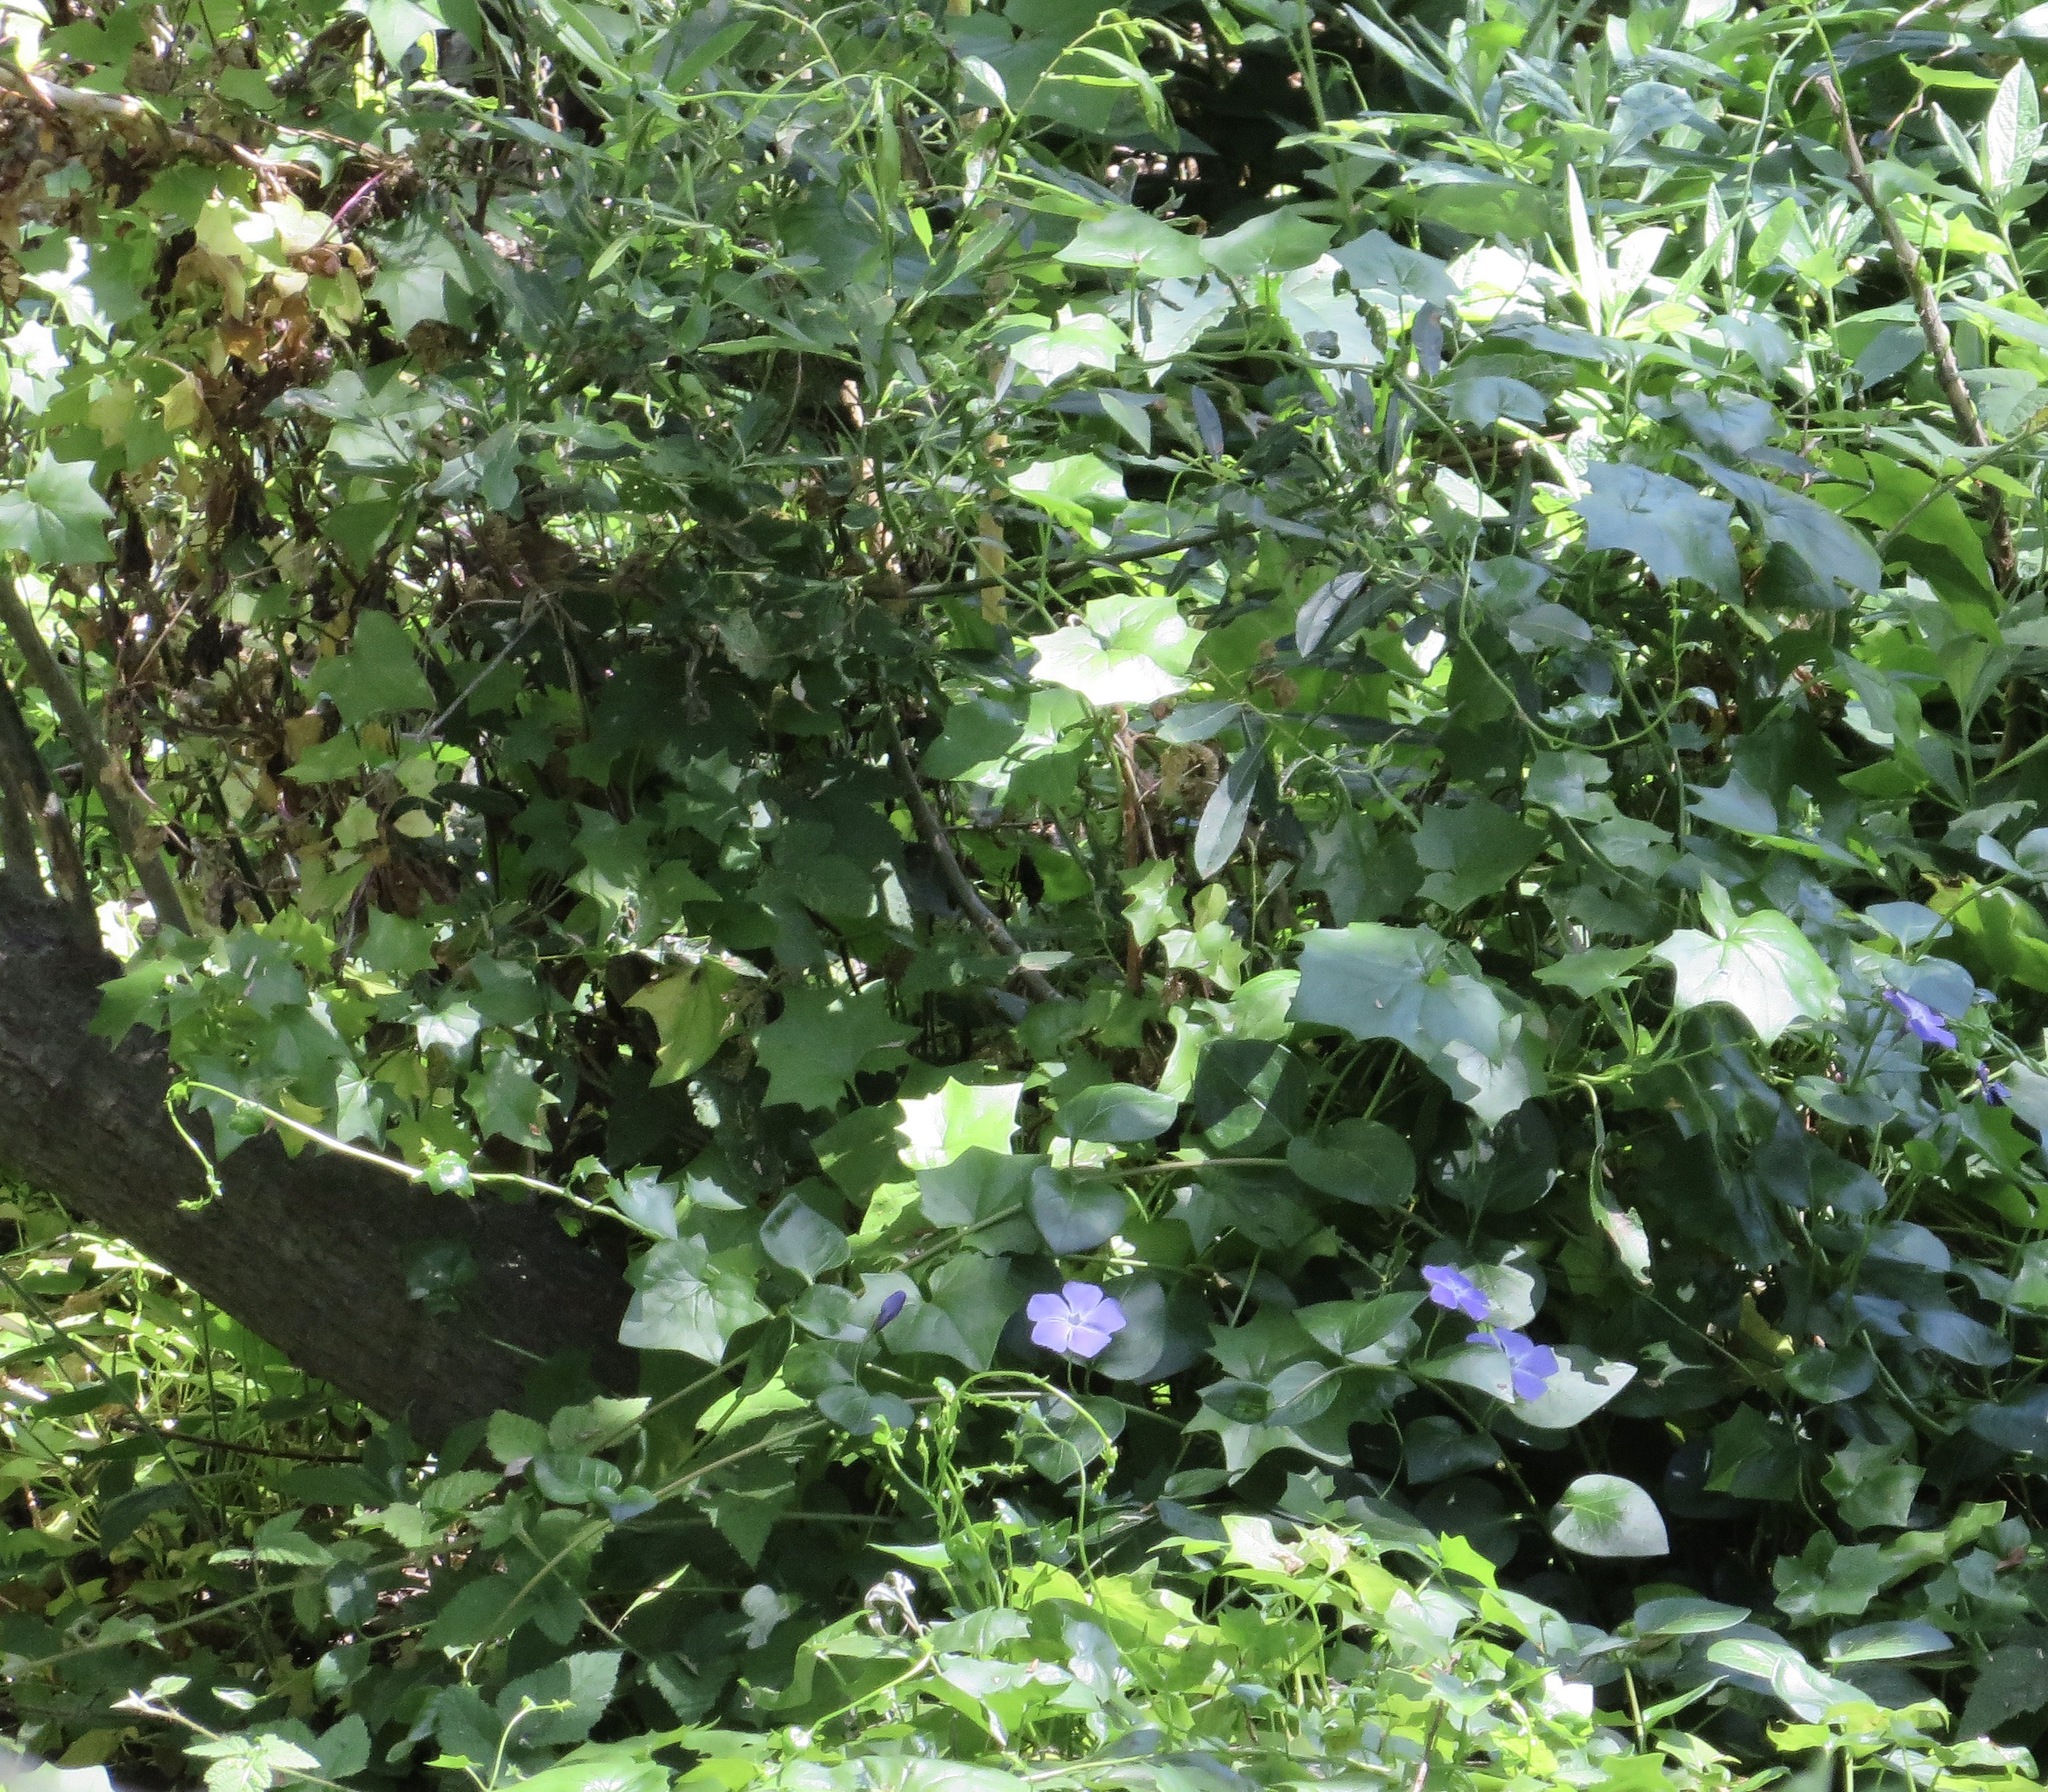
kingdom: Plantae
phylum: Tracheophyta
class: Magnoliopsida
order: Gentianales
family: Apocynaceae
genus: Vinca
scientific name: Vinca major
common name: Greater periwinkle
